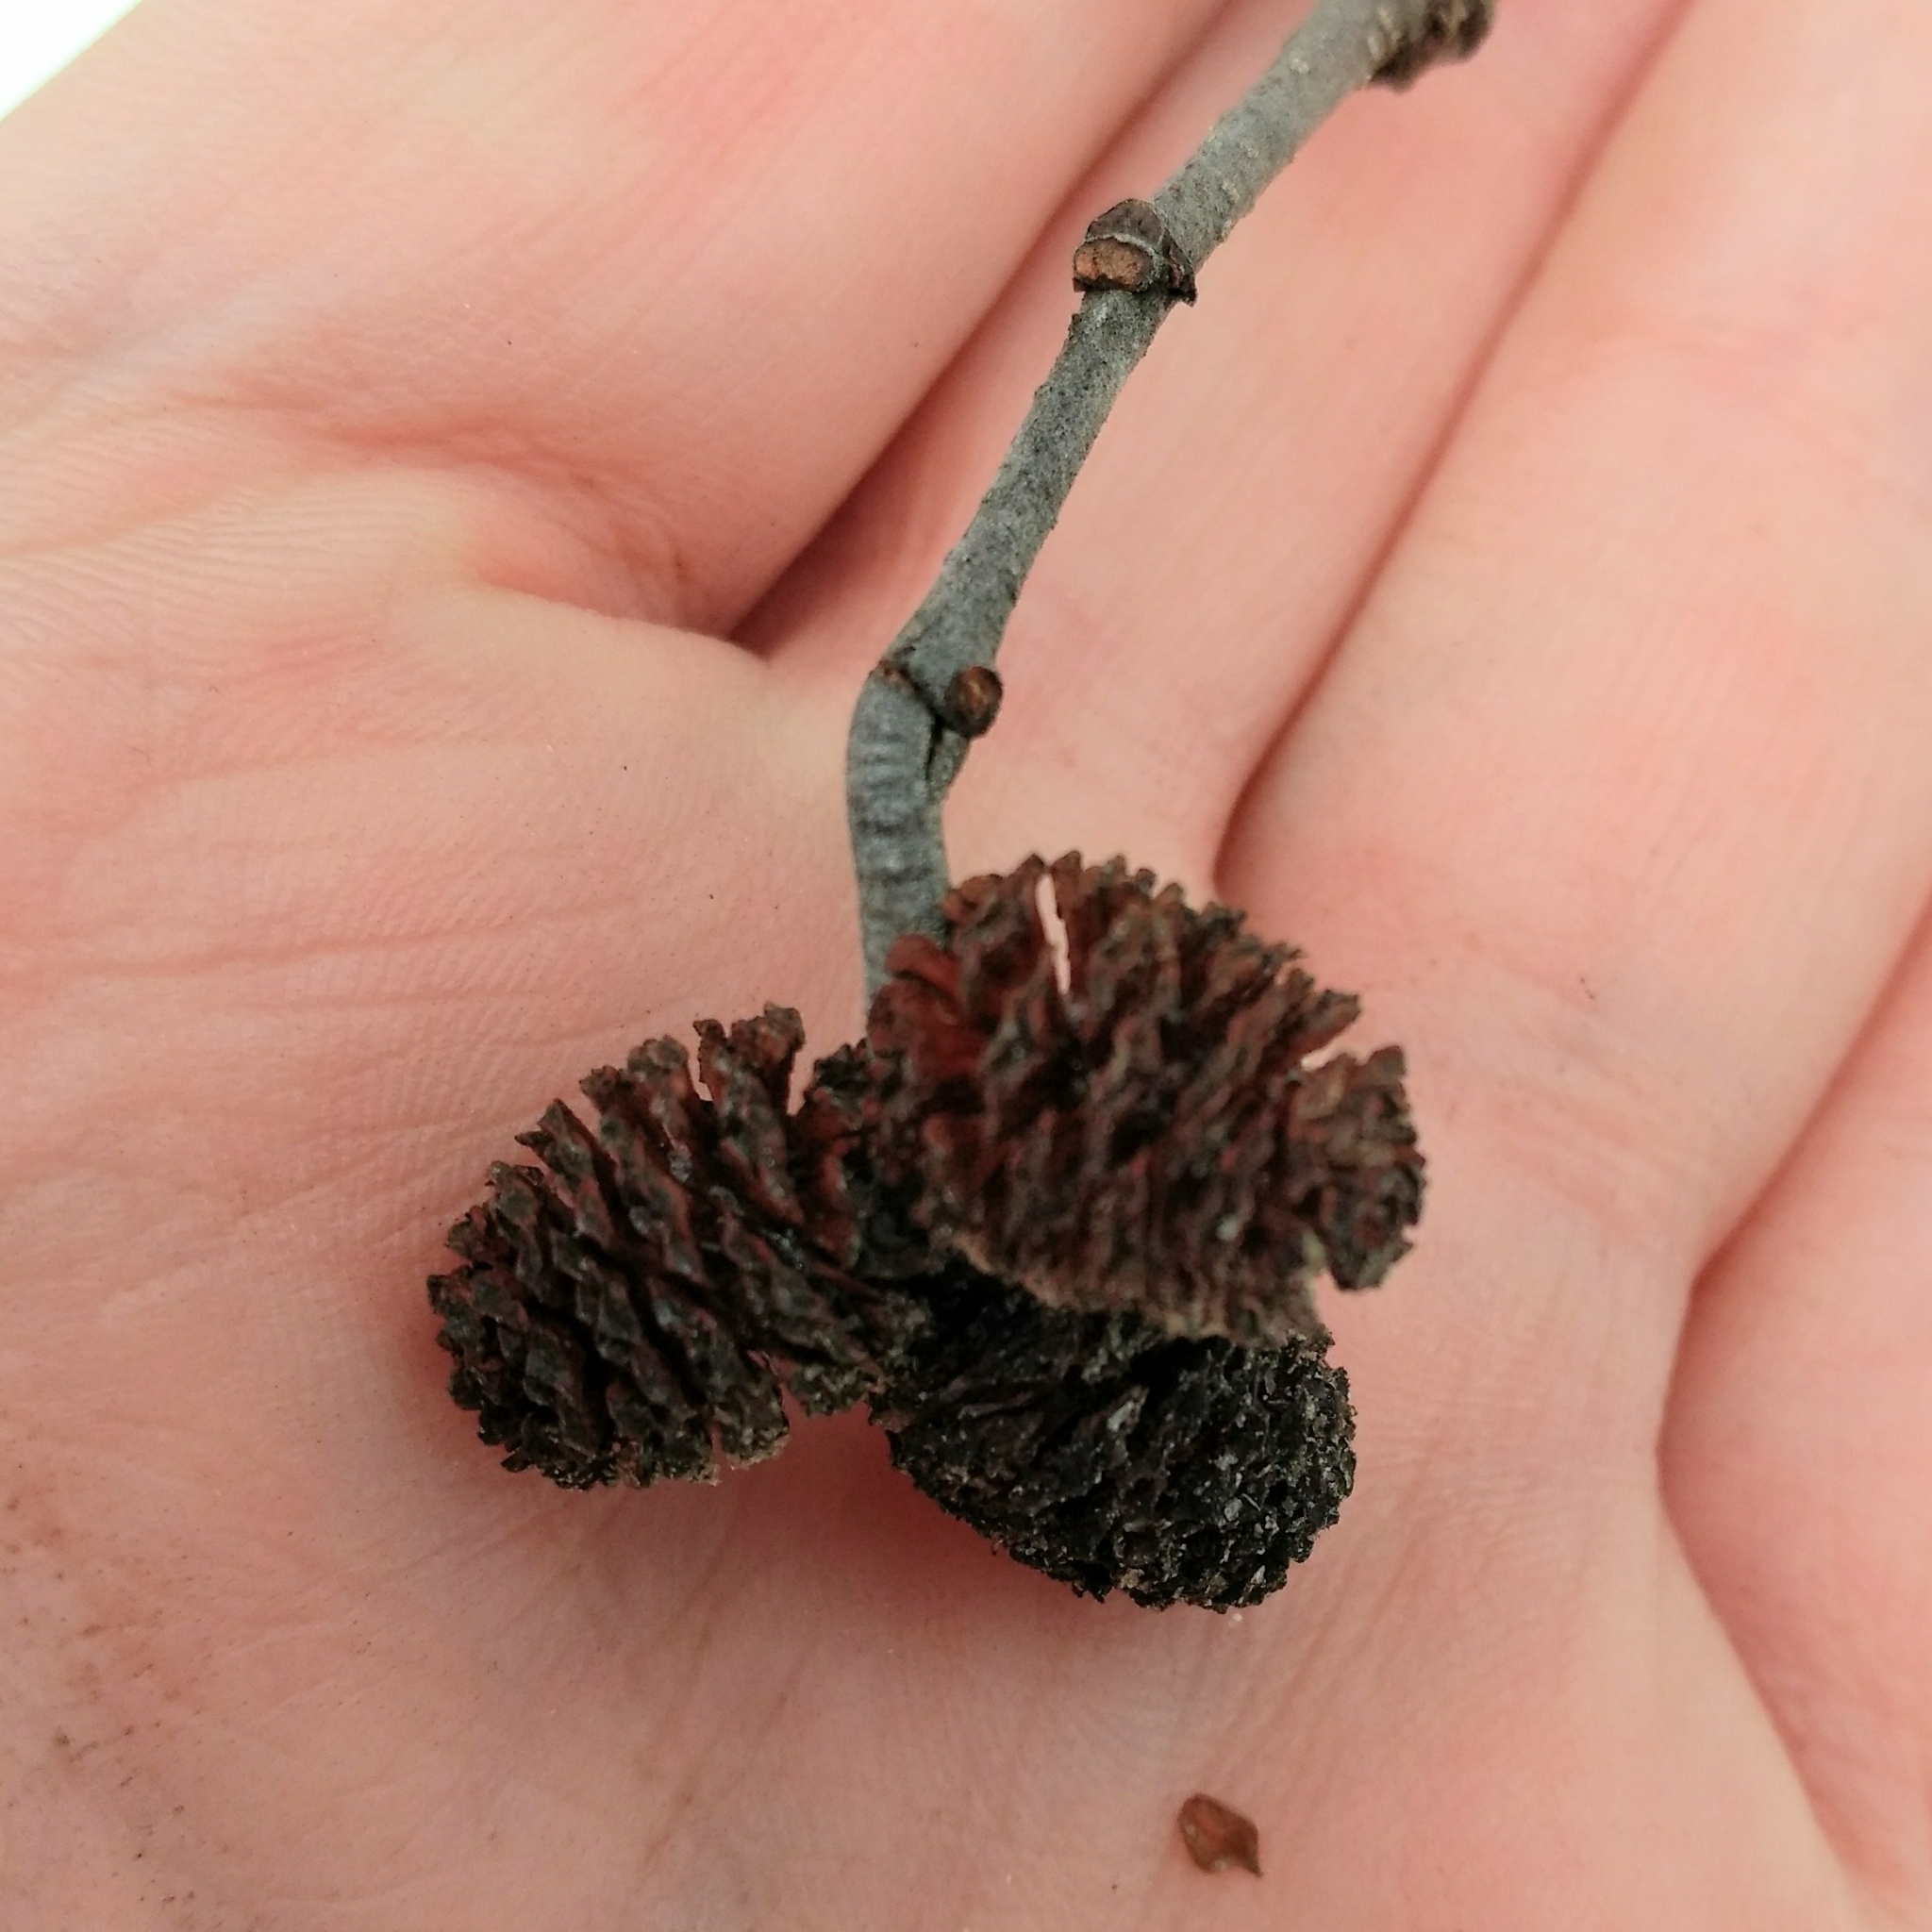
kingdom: Plantae
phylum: Tracheophyta
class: Magnoliopsida
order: Fagales
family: Betulaceae
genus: Alnus
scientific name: Alnus incana
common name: Grey alder
